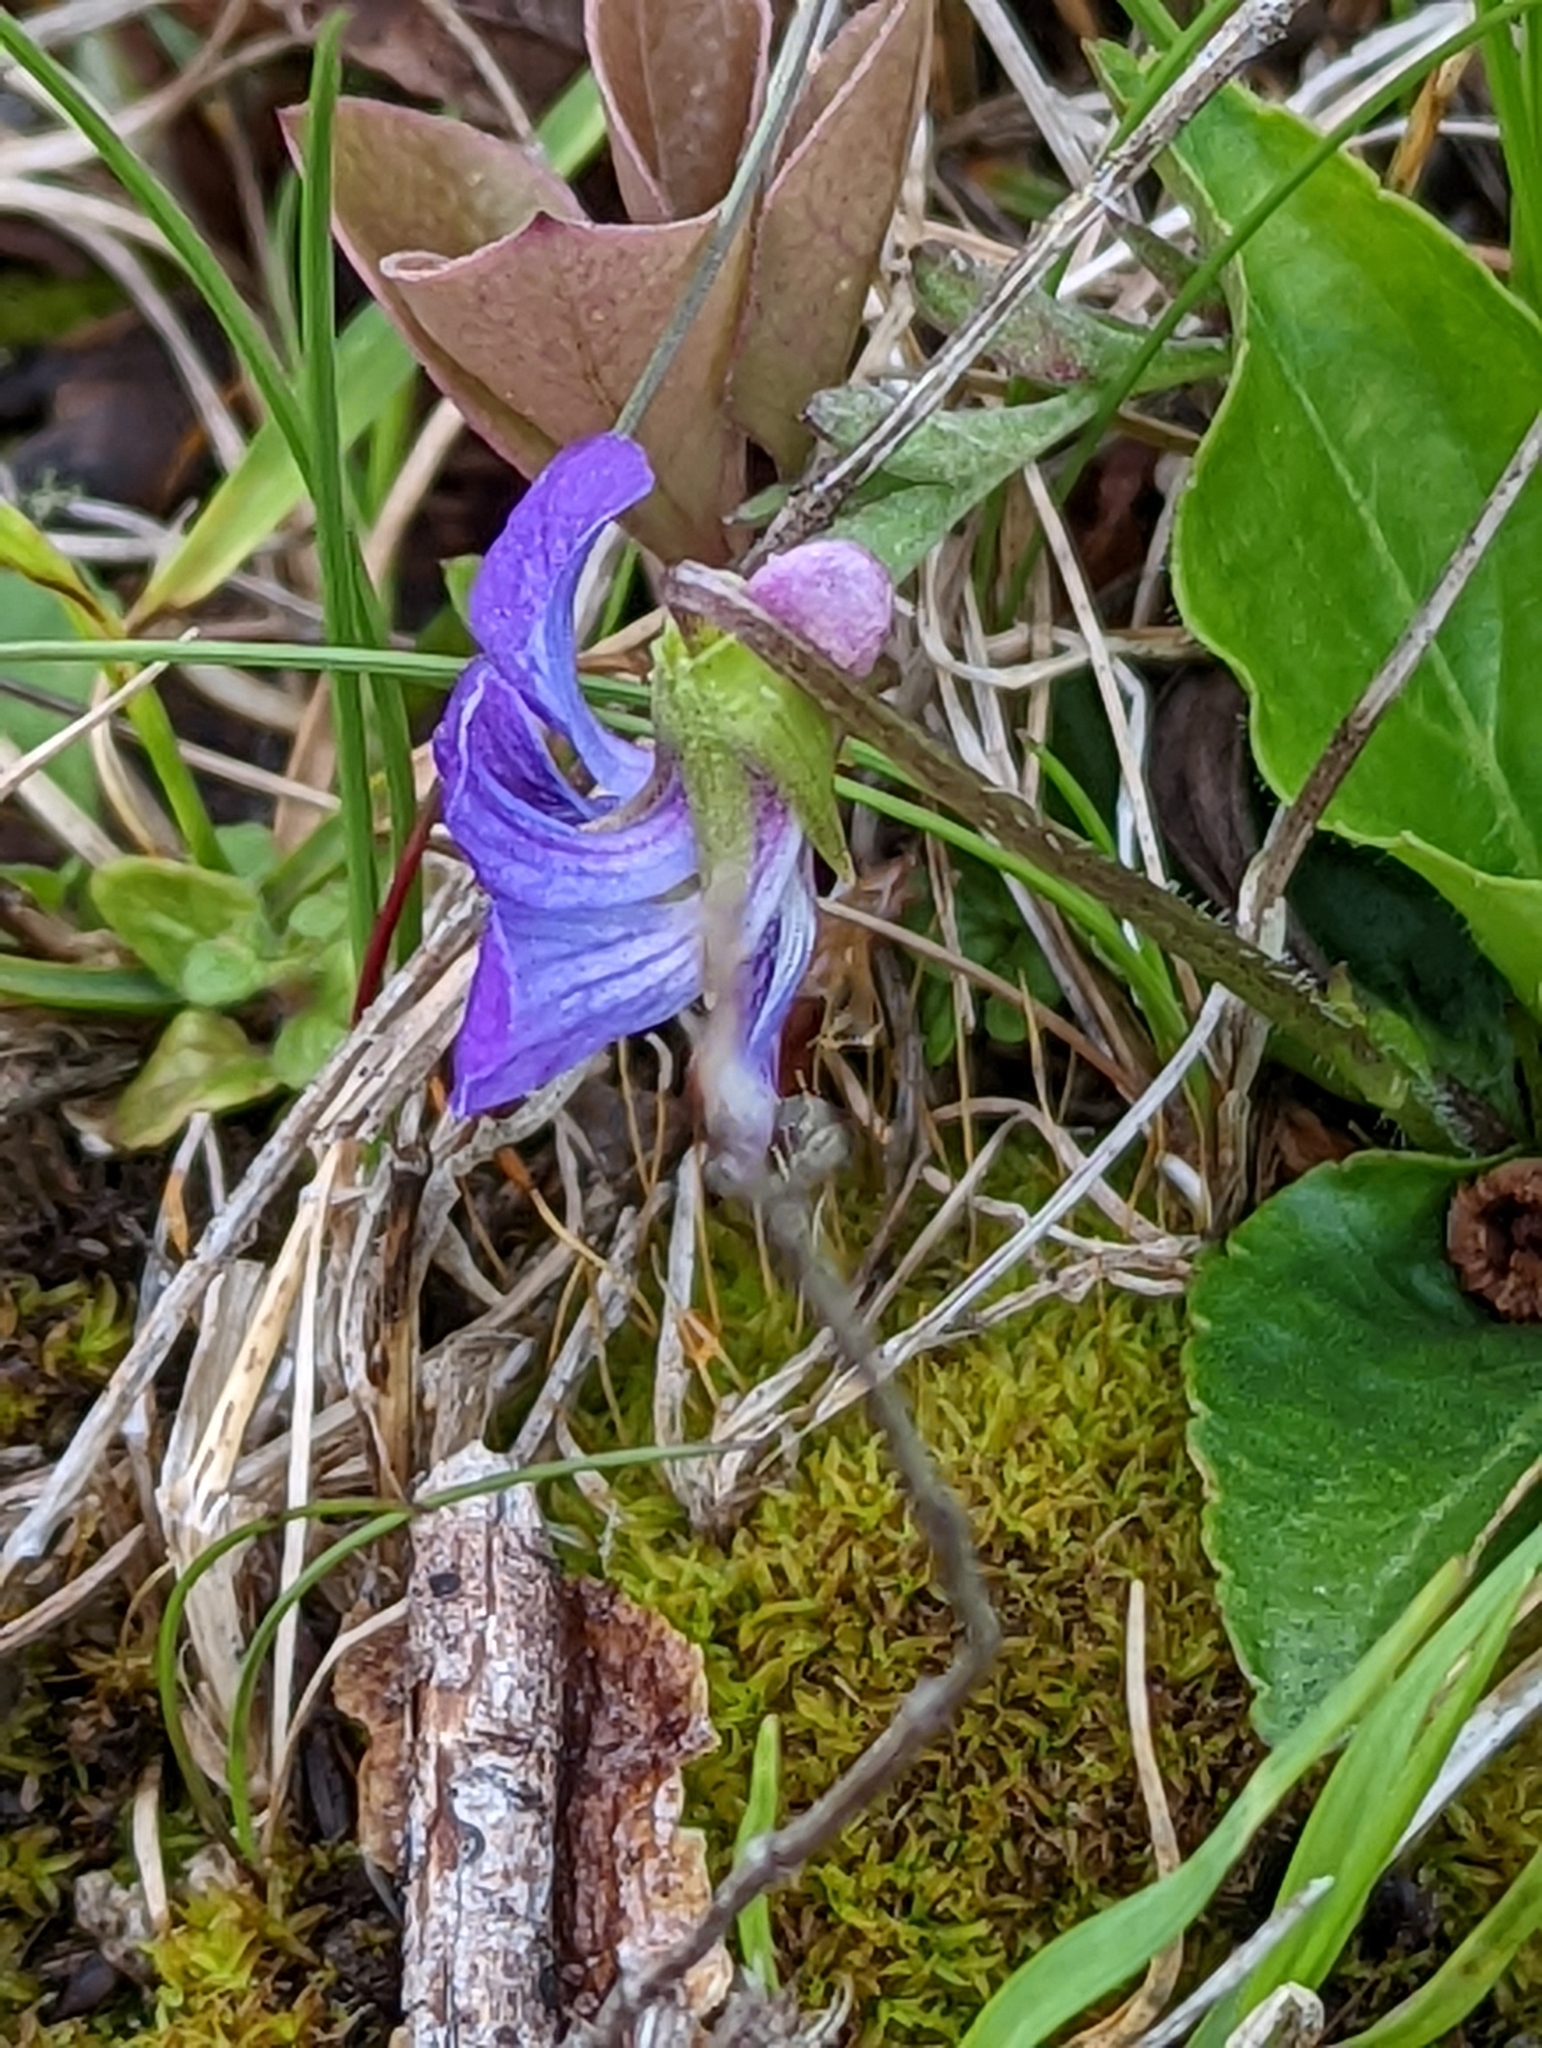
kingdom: Plantae
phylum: Tracheophyta
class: Magnoliopsida
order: Malpighiales
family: Violaceae
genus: Viola
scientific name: Viola sororia
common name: Dooryard violet
